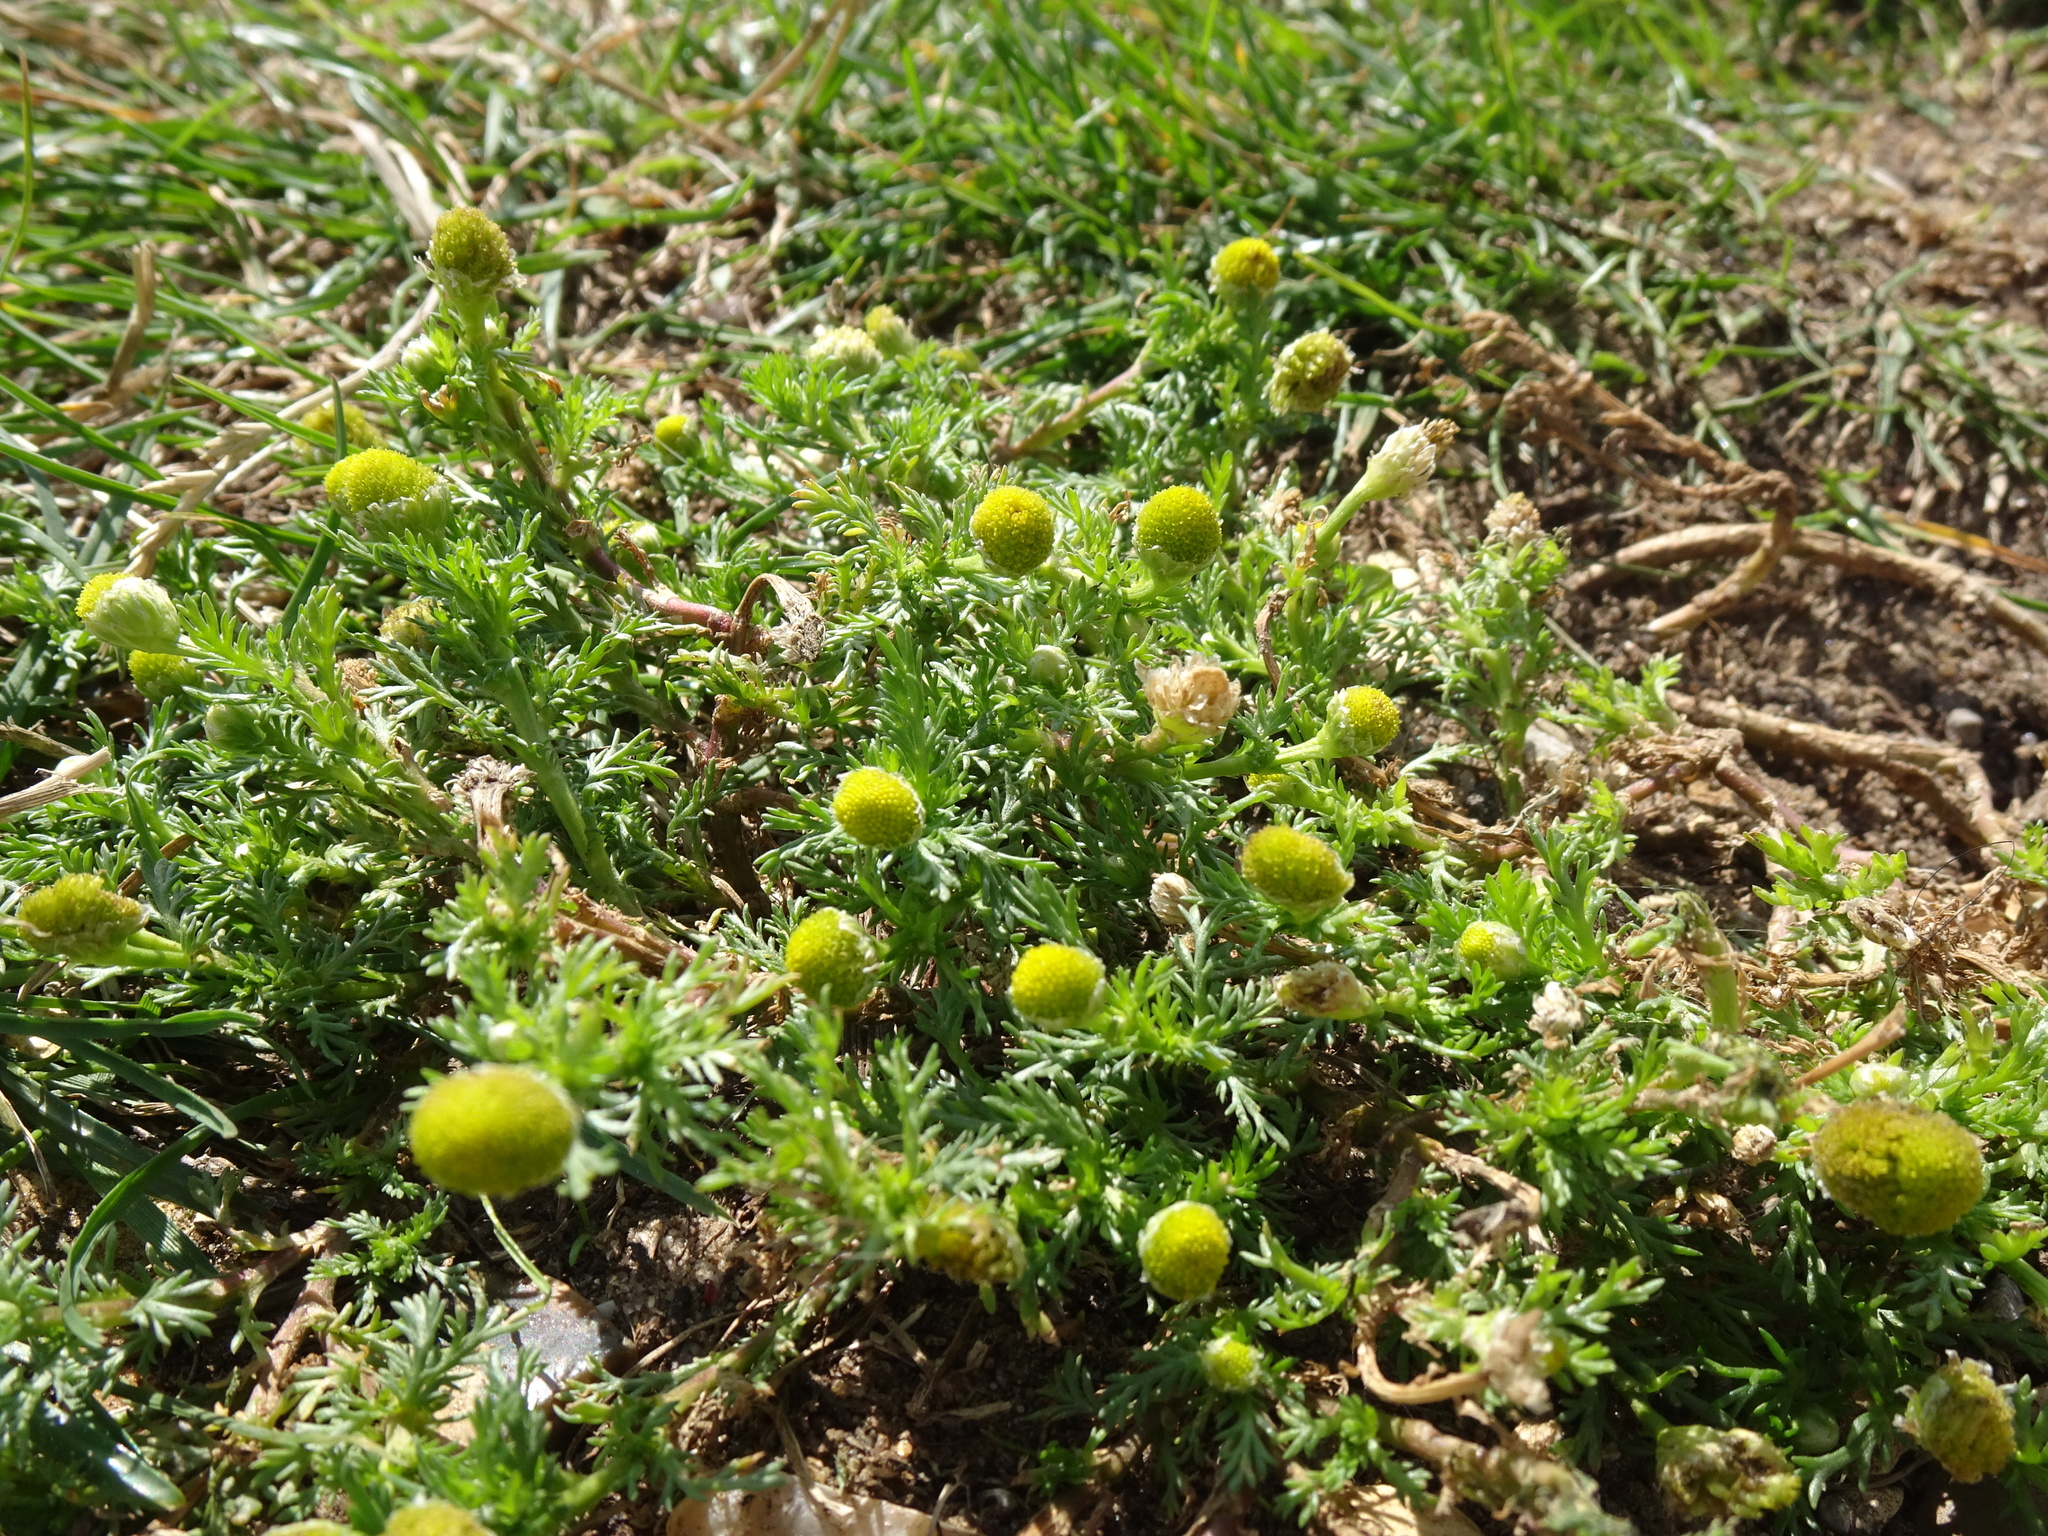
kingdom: Plantae
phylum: Tracheophyta
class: Magnoliopsida
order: Asterales
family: Asteraceae
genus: Matricaria
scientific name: Matricaria discoidea
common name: Disc mayweed
